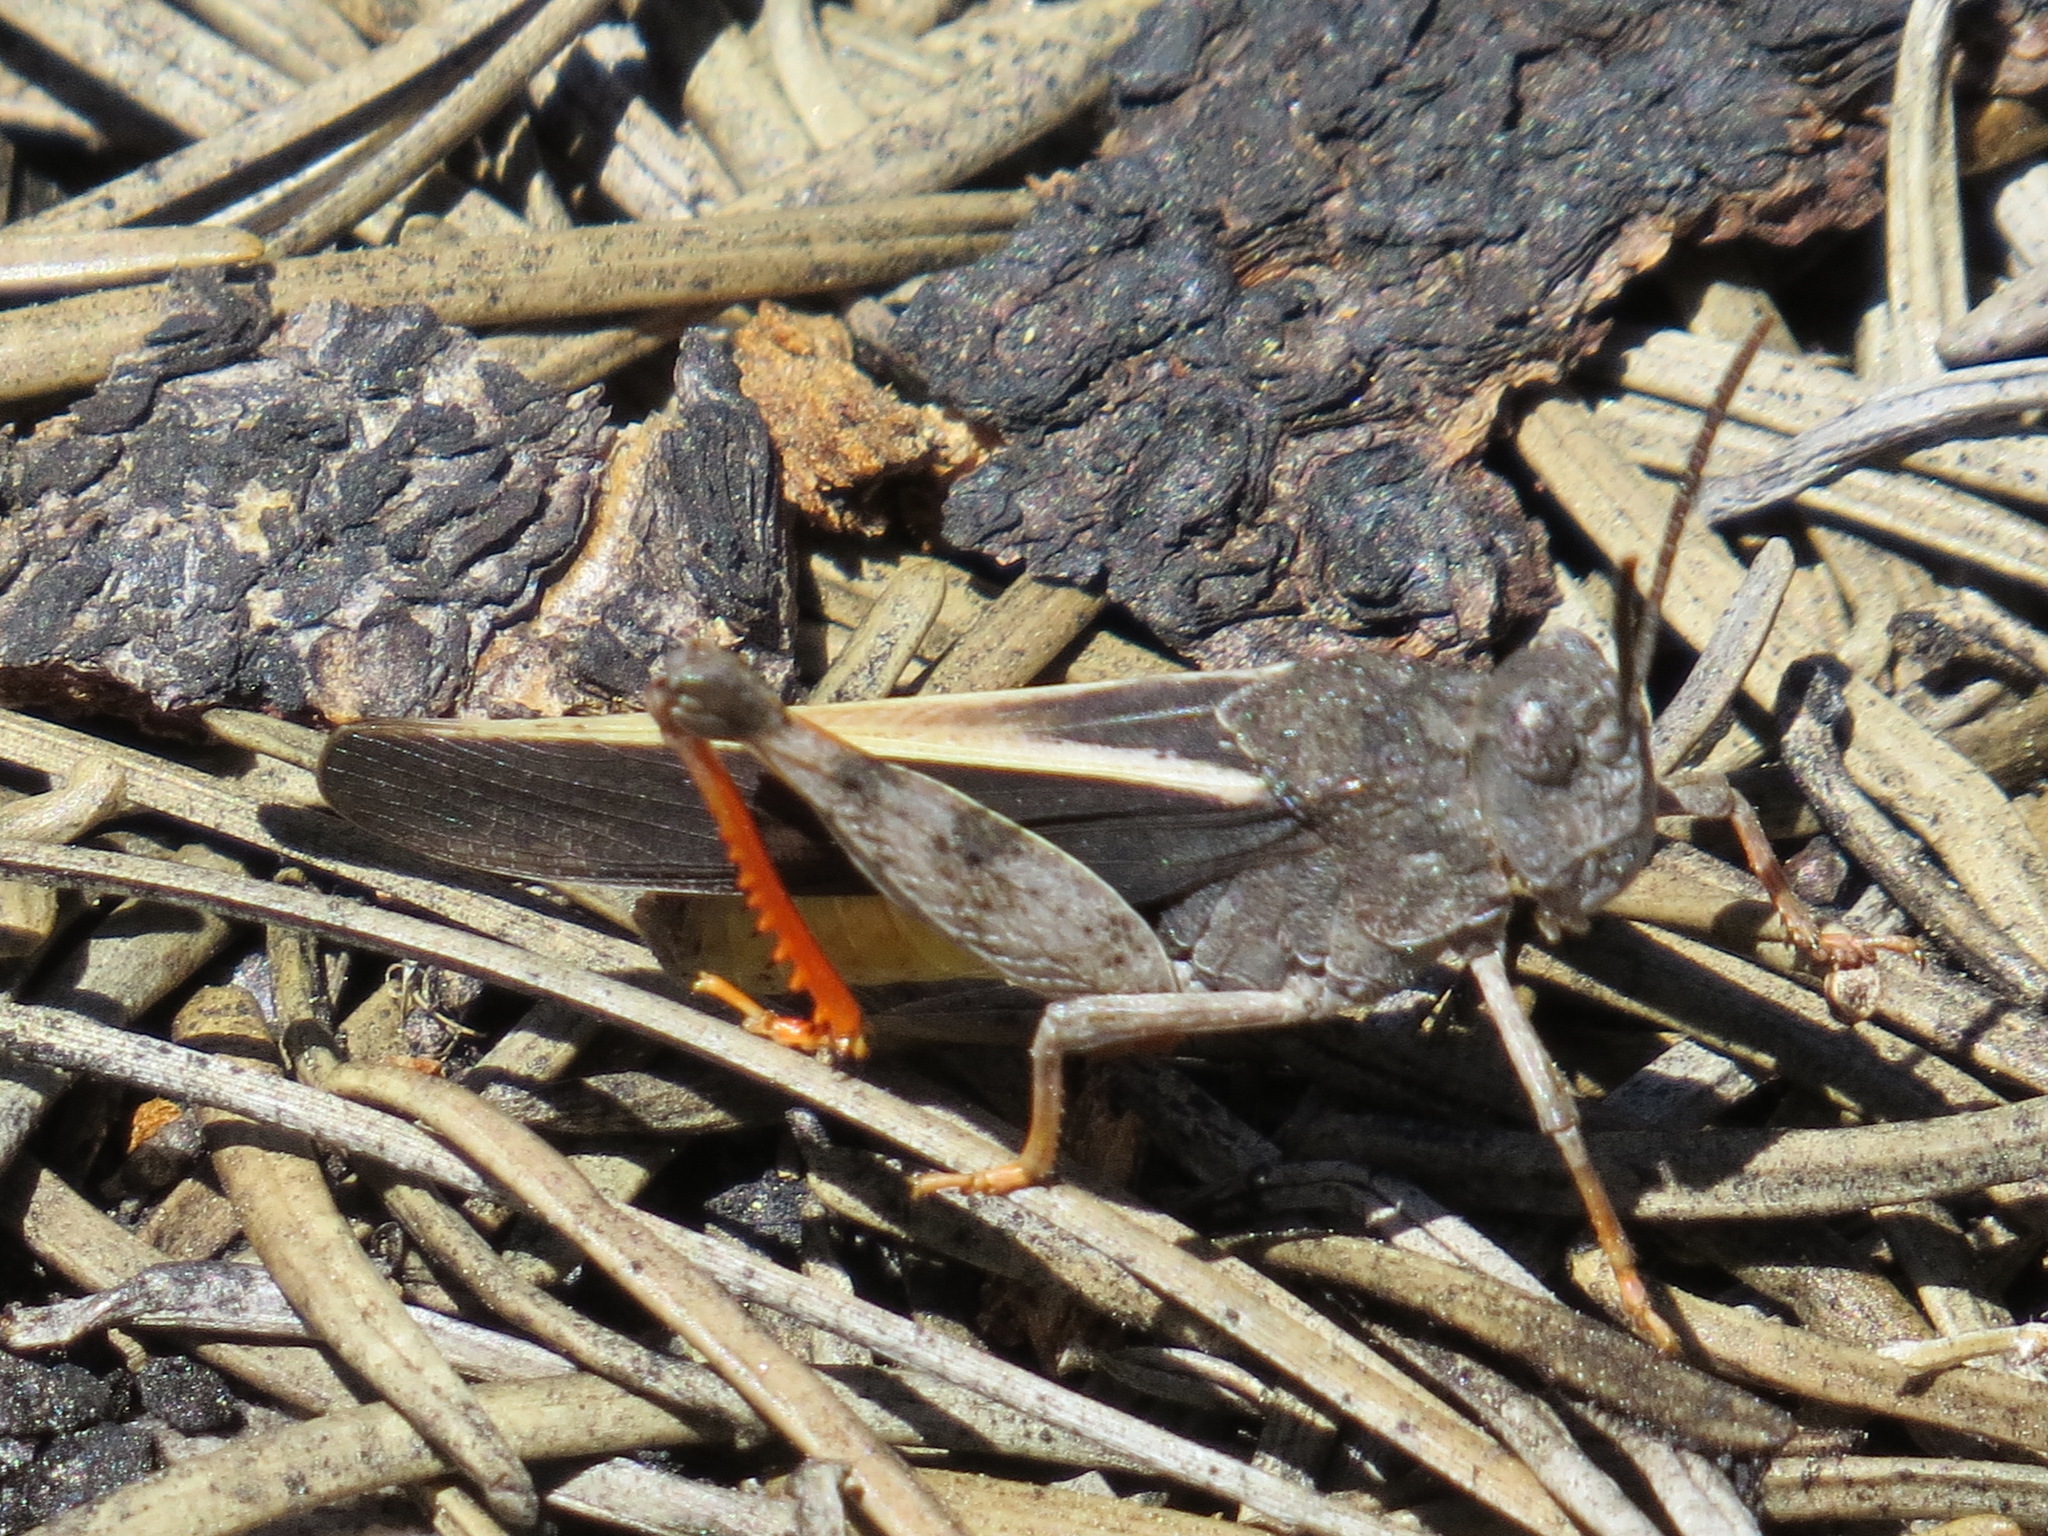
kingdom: Animalia
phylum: Arthropoda
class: Insecta
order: Orthoptera
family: Acrididae
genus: Cratypedes
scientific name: Cratypedes neglectus
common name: Pronotal range grasshopper
